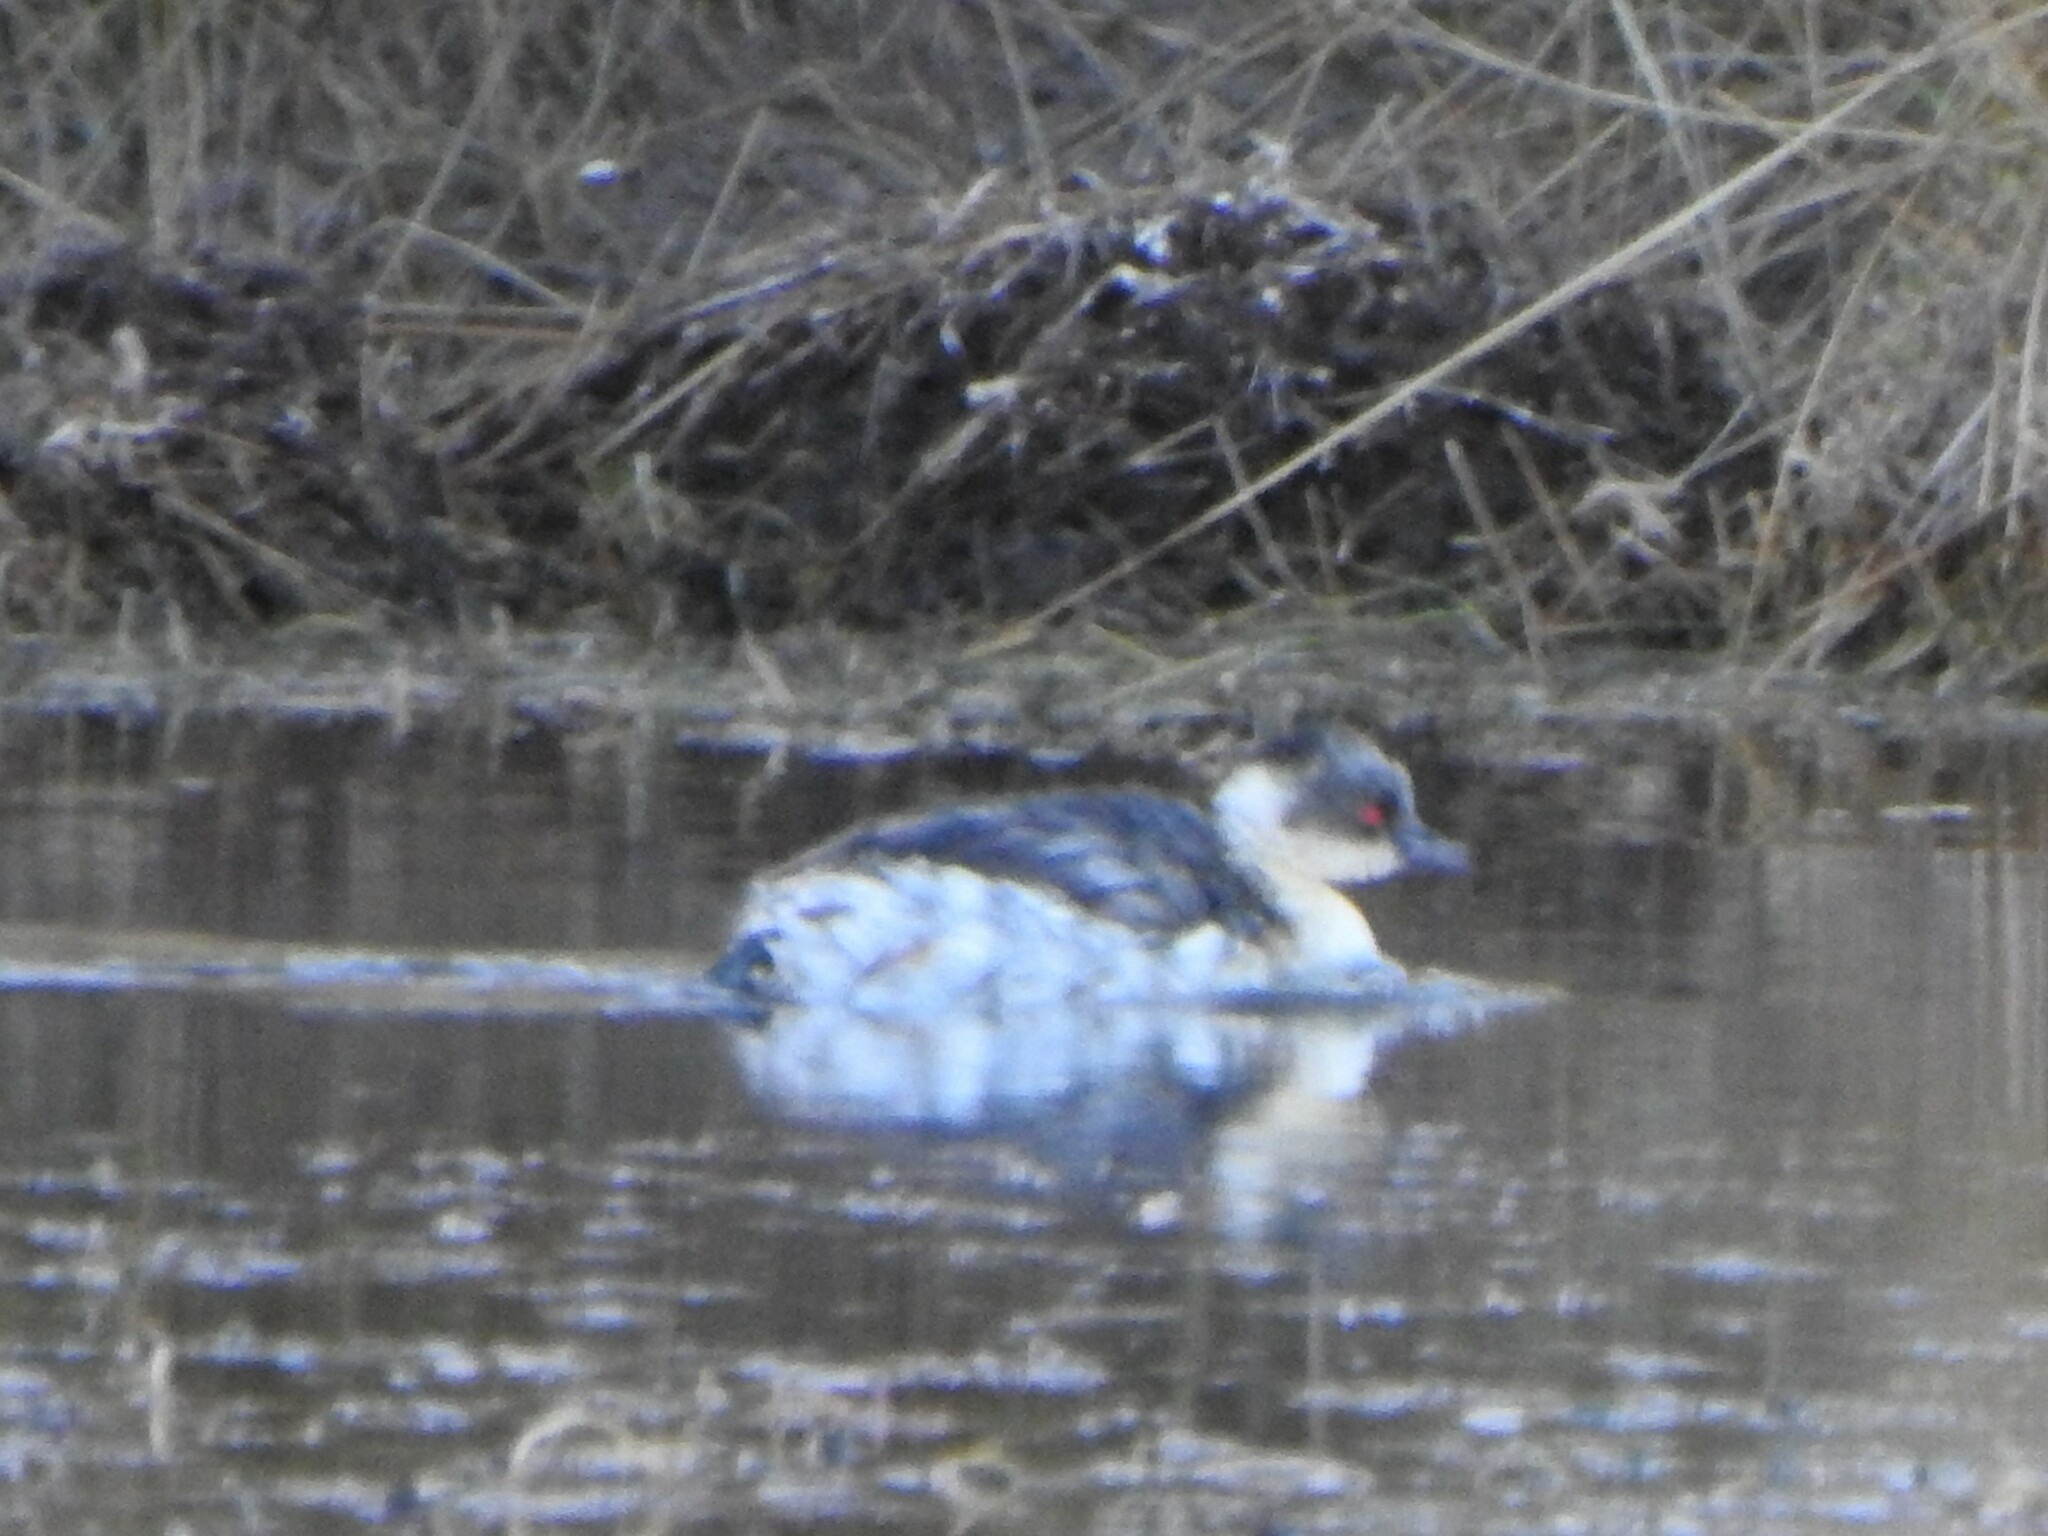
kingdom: Animalia
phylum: Chordata
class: Aves
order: Podicipediformes
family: Podicipedidae
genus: Podiceps
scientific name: Podiceps occipitalis
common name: Silvery grebe
